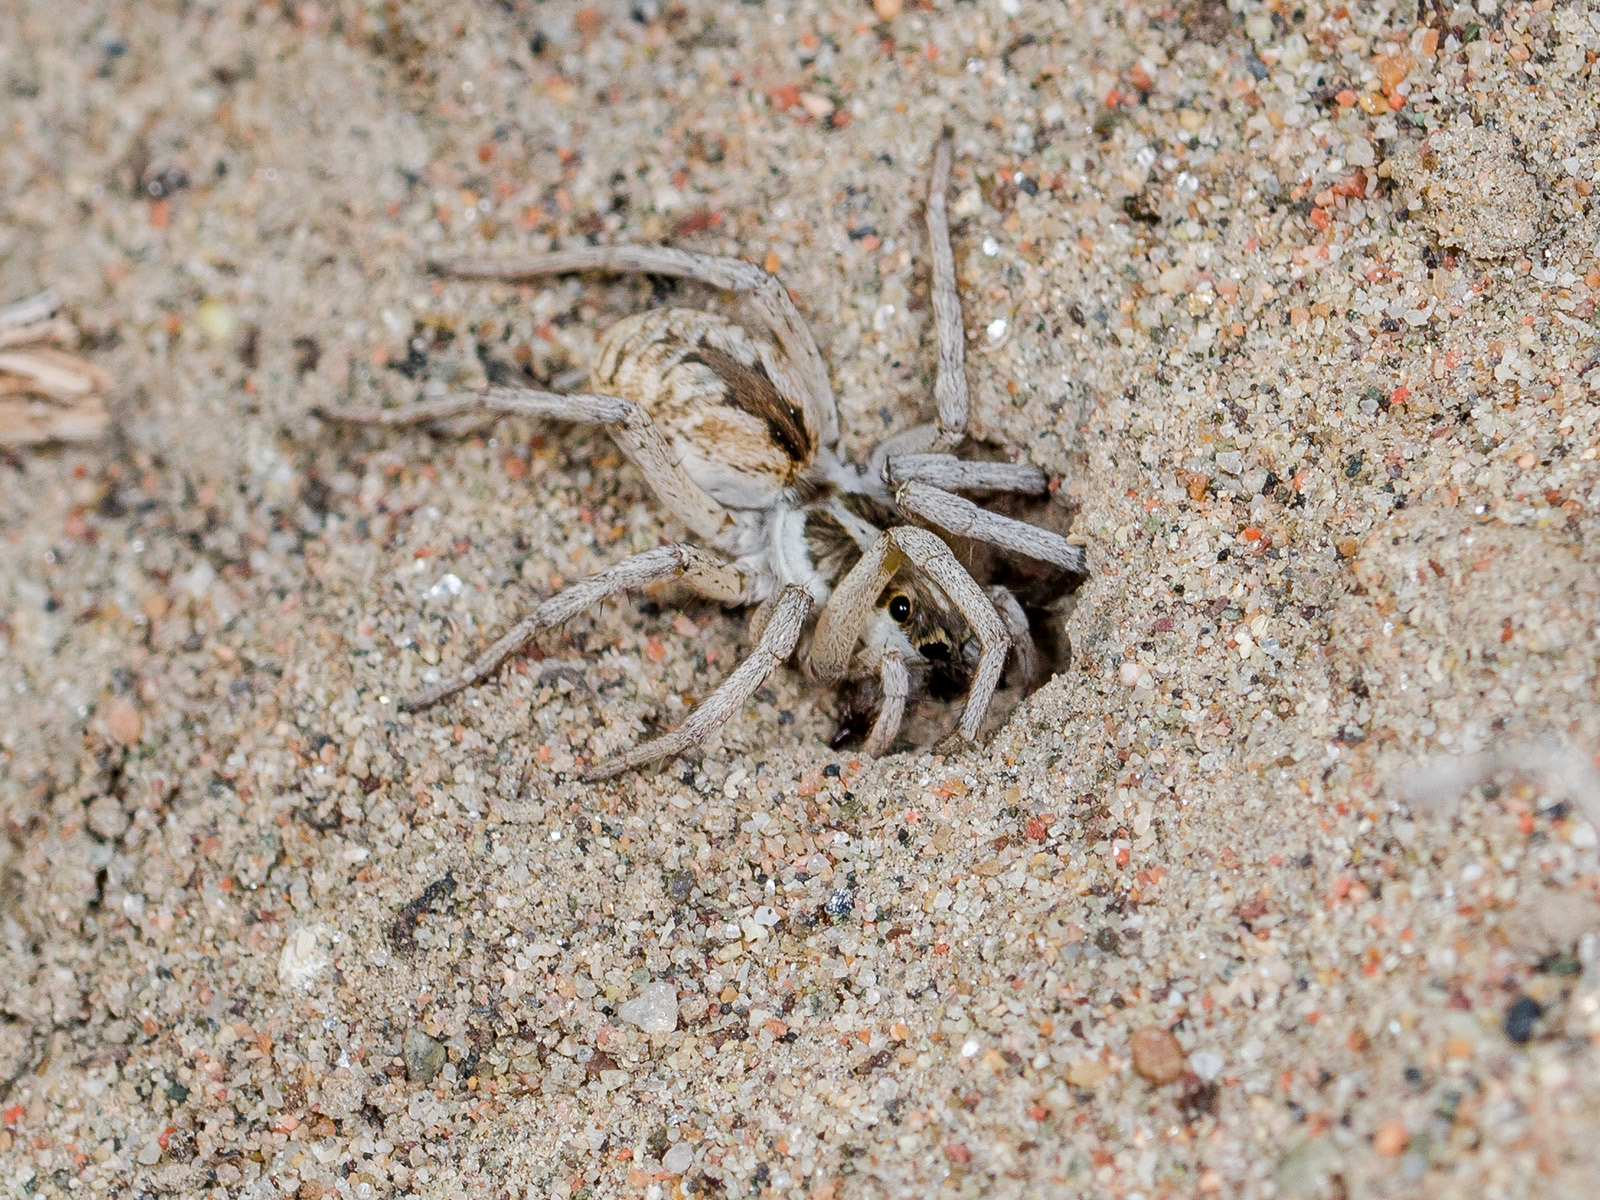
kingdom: Animalia
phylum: Arthropoda
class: Arachnida
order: Araneae
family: Lycosidae
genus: Karakumosa
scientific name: Karakumosa alticeps
